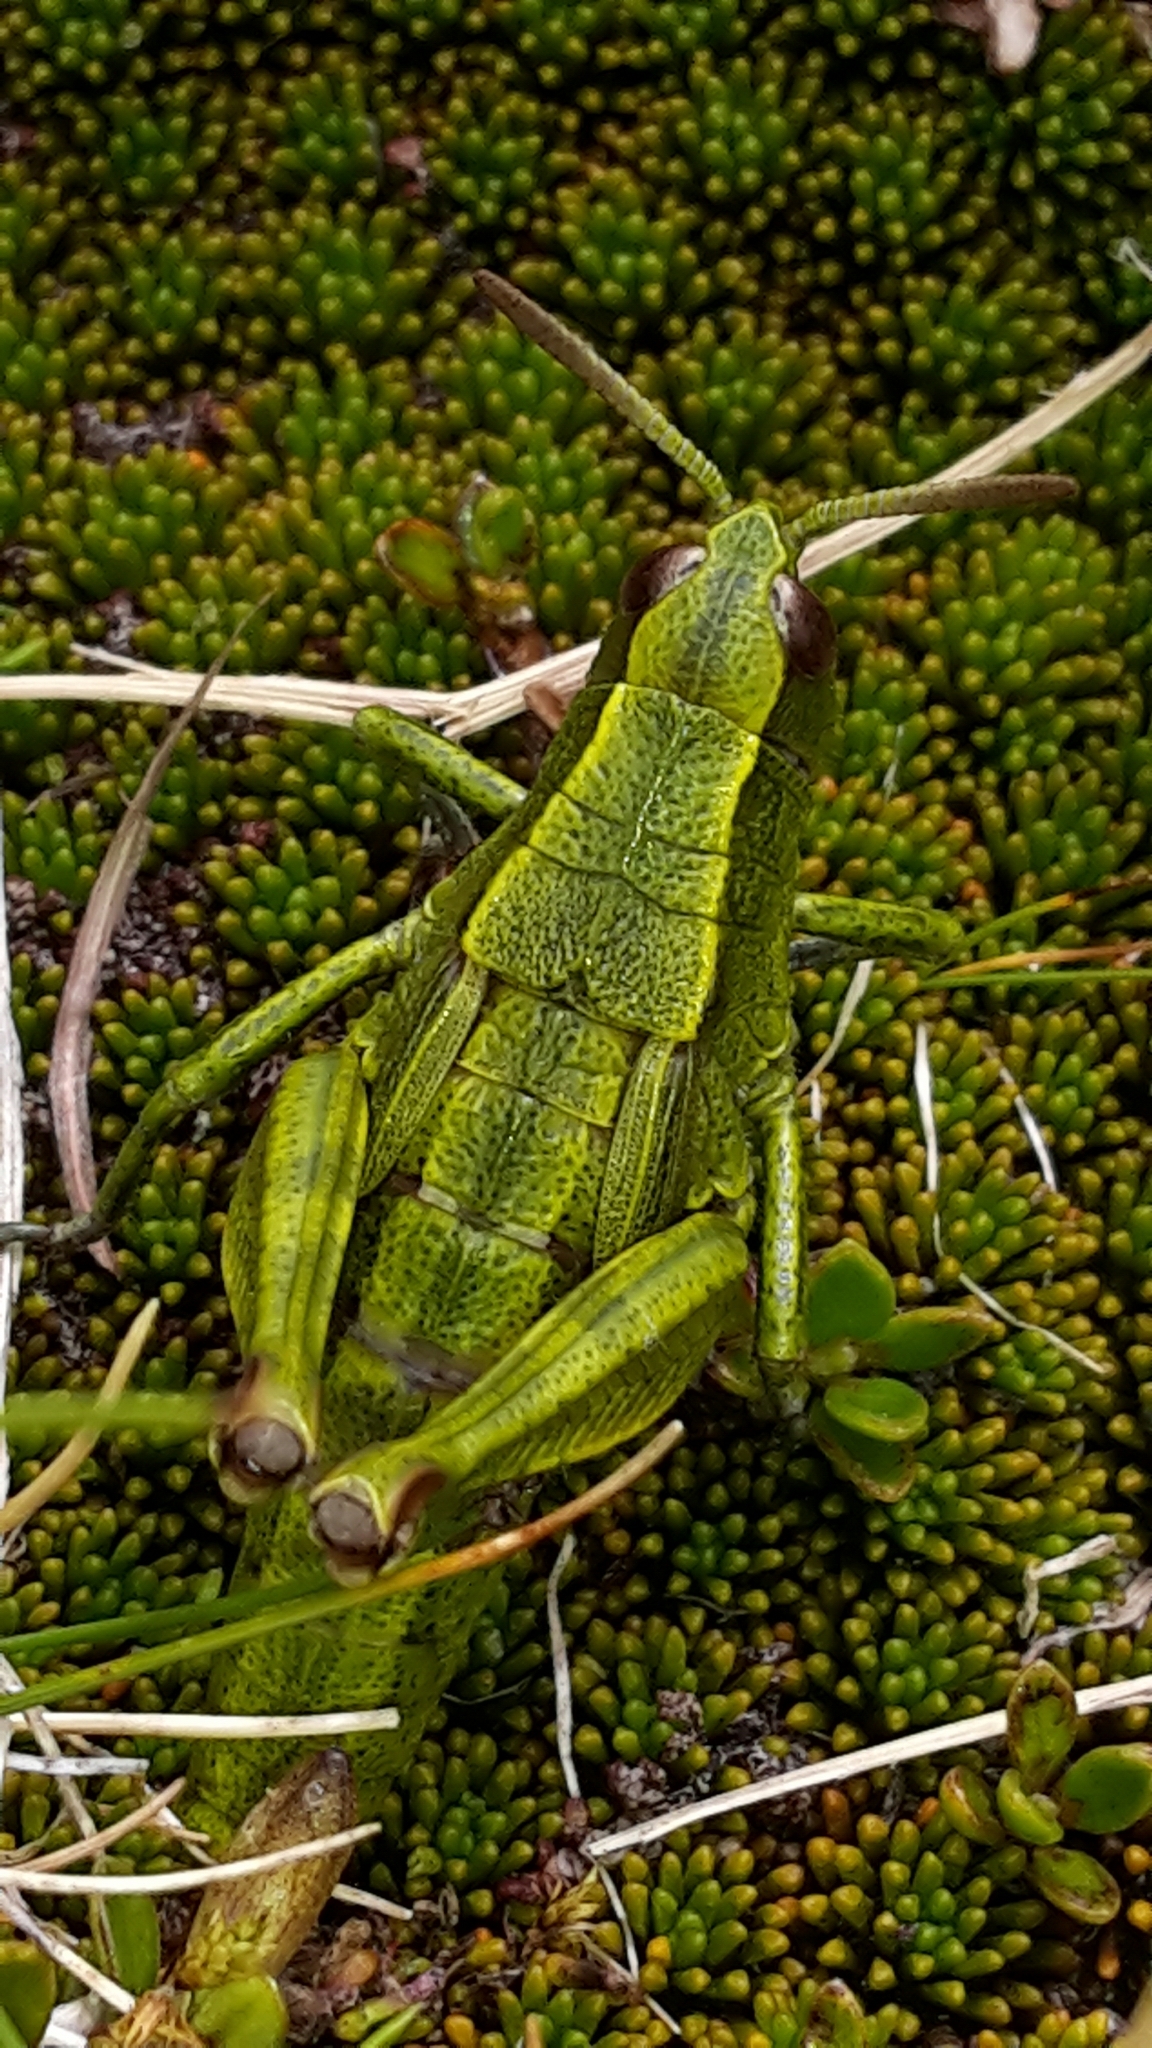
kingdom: Animalia
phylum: Arthropoda
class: Insecta
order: Orthoptera
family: Acrididae
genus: Sigaus
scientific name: Sigaus piliferus
